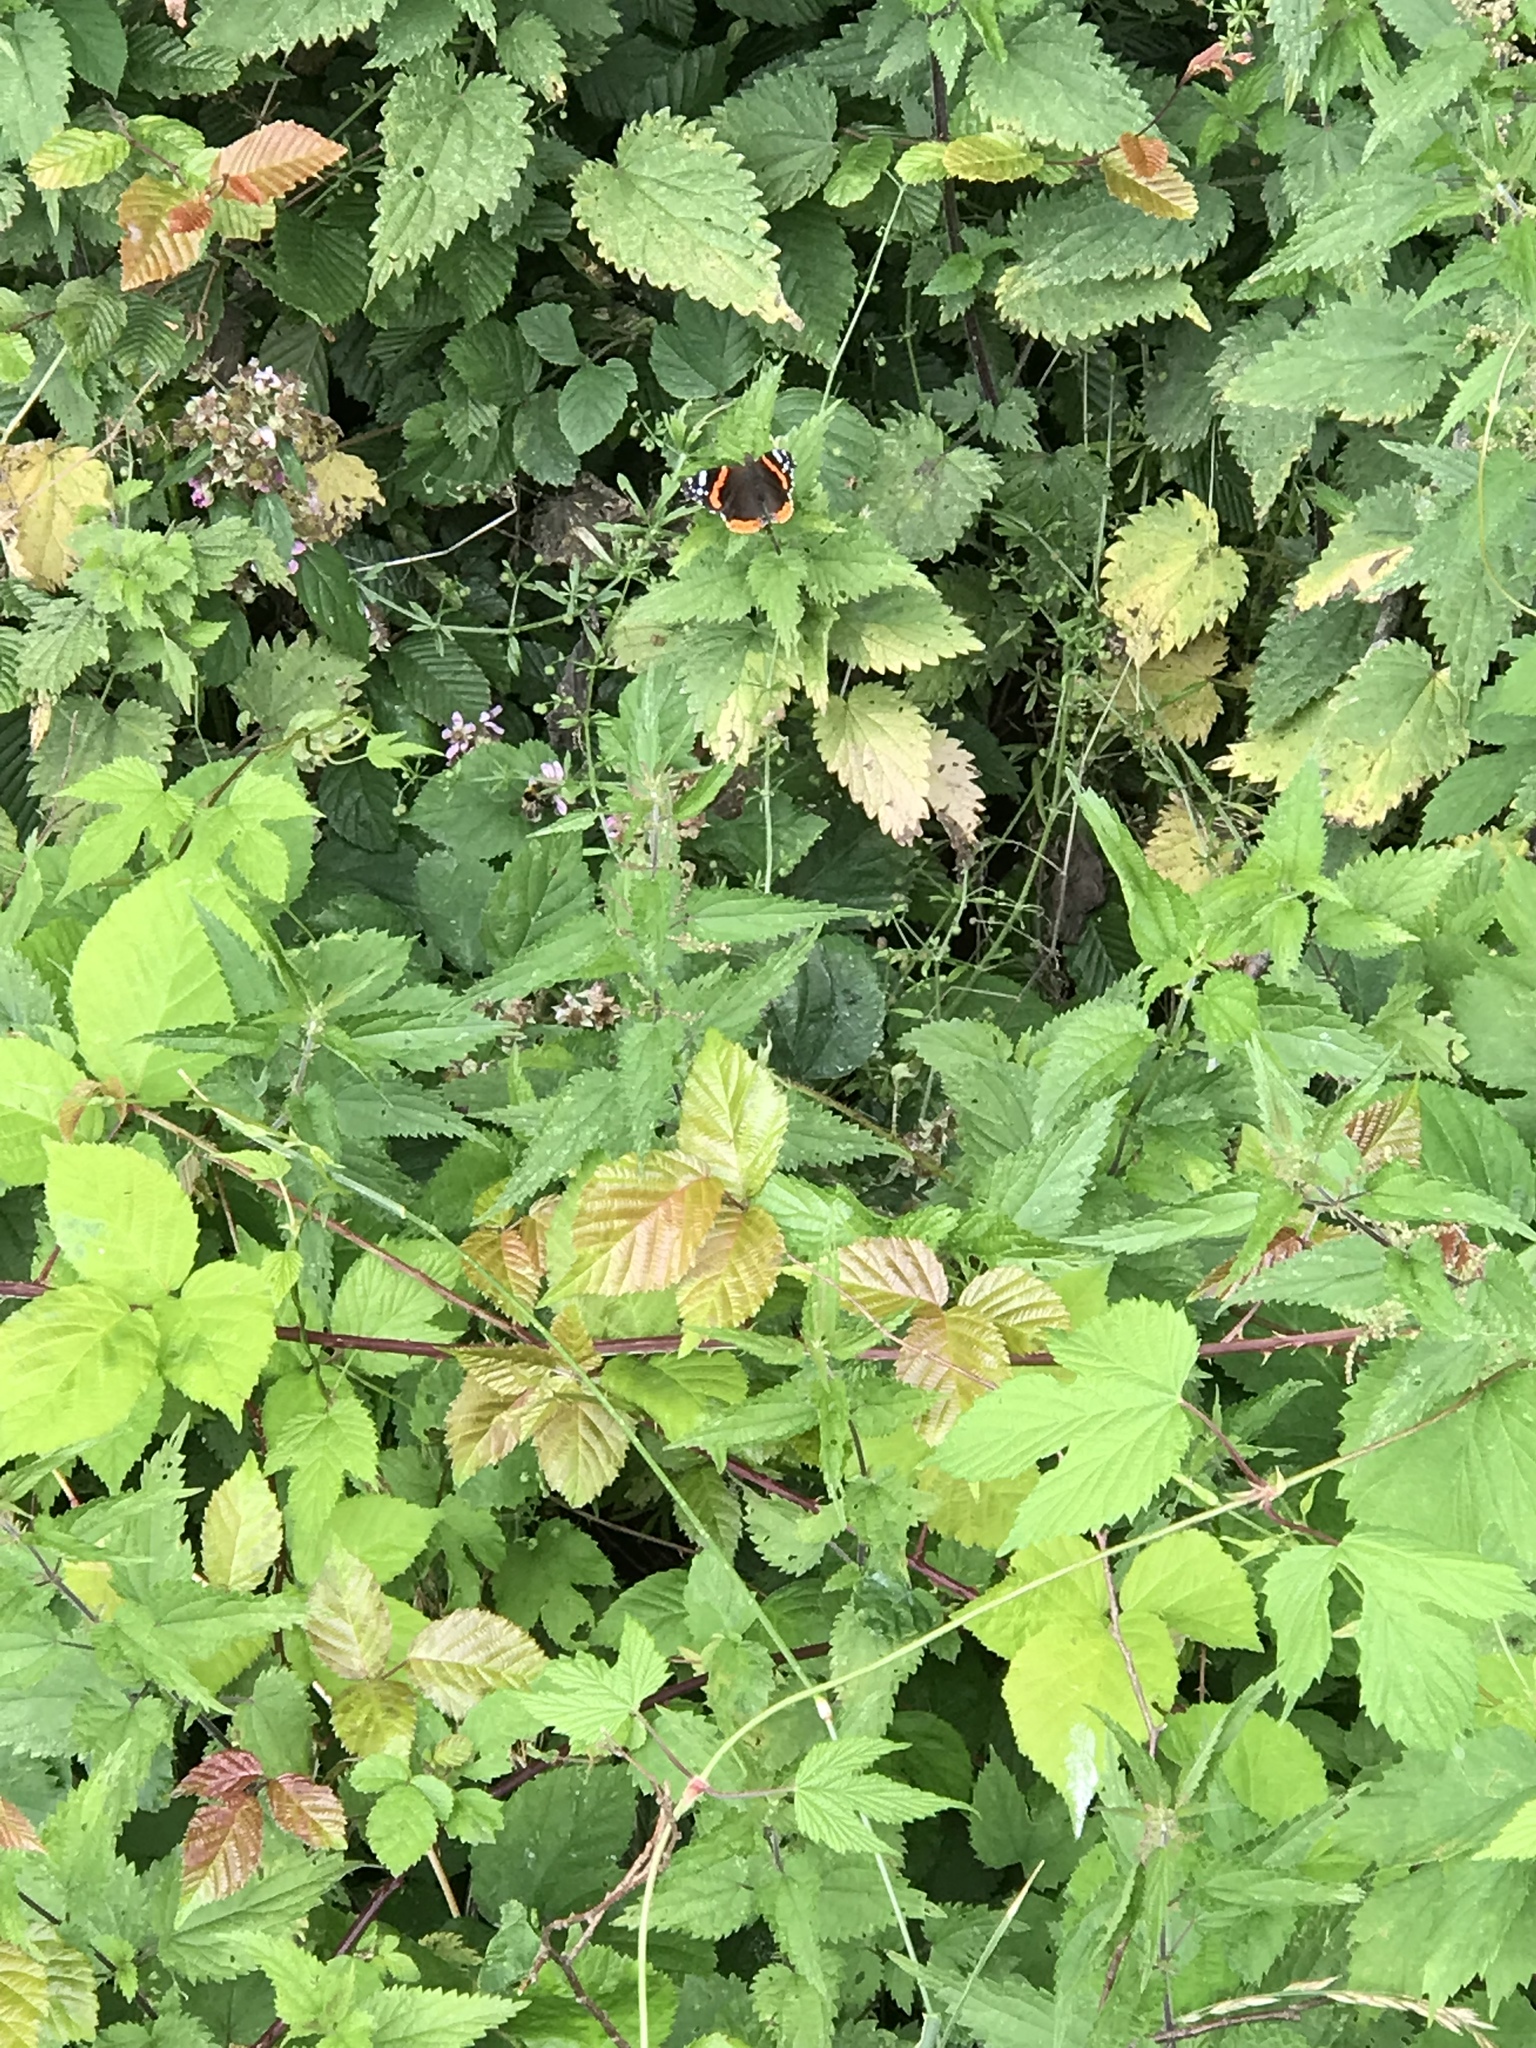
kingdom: Animalia
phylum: Arthropoda
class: Insecta
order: Lepidoptera
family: Nymphalidae
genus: Vanessa
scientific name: Vanessa atalanta
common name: Red admiral
